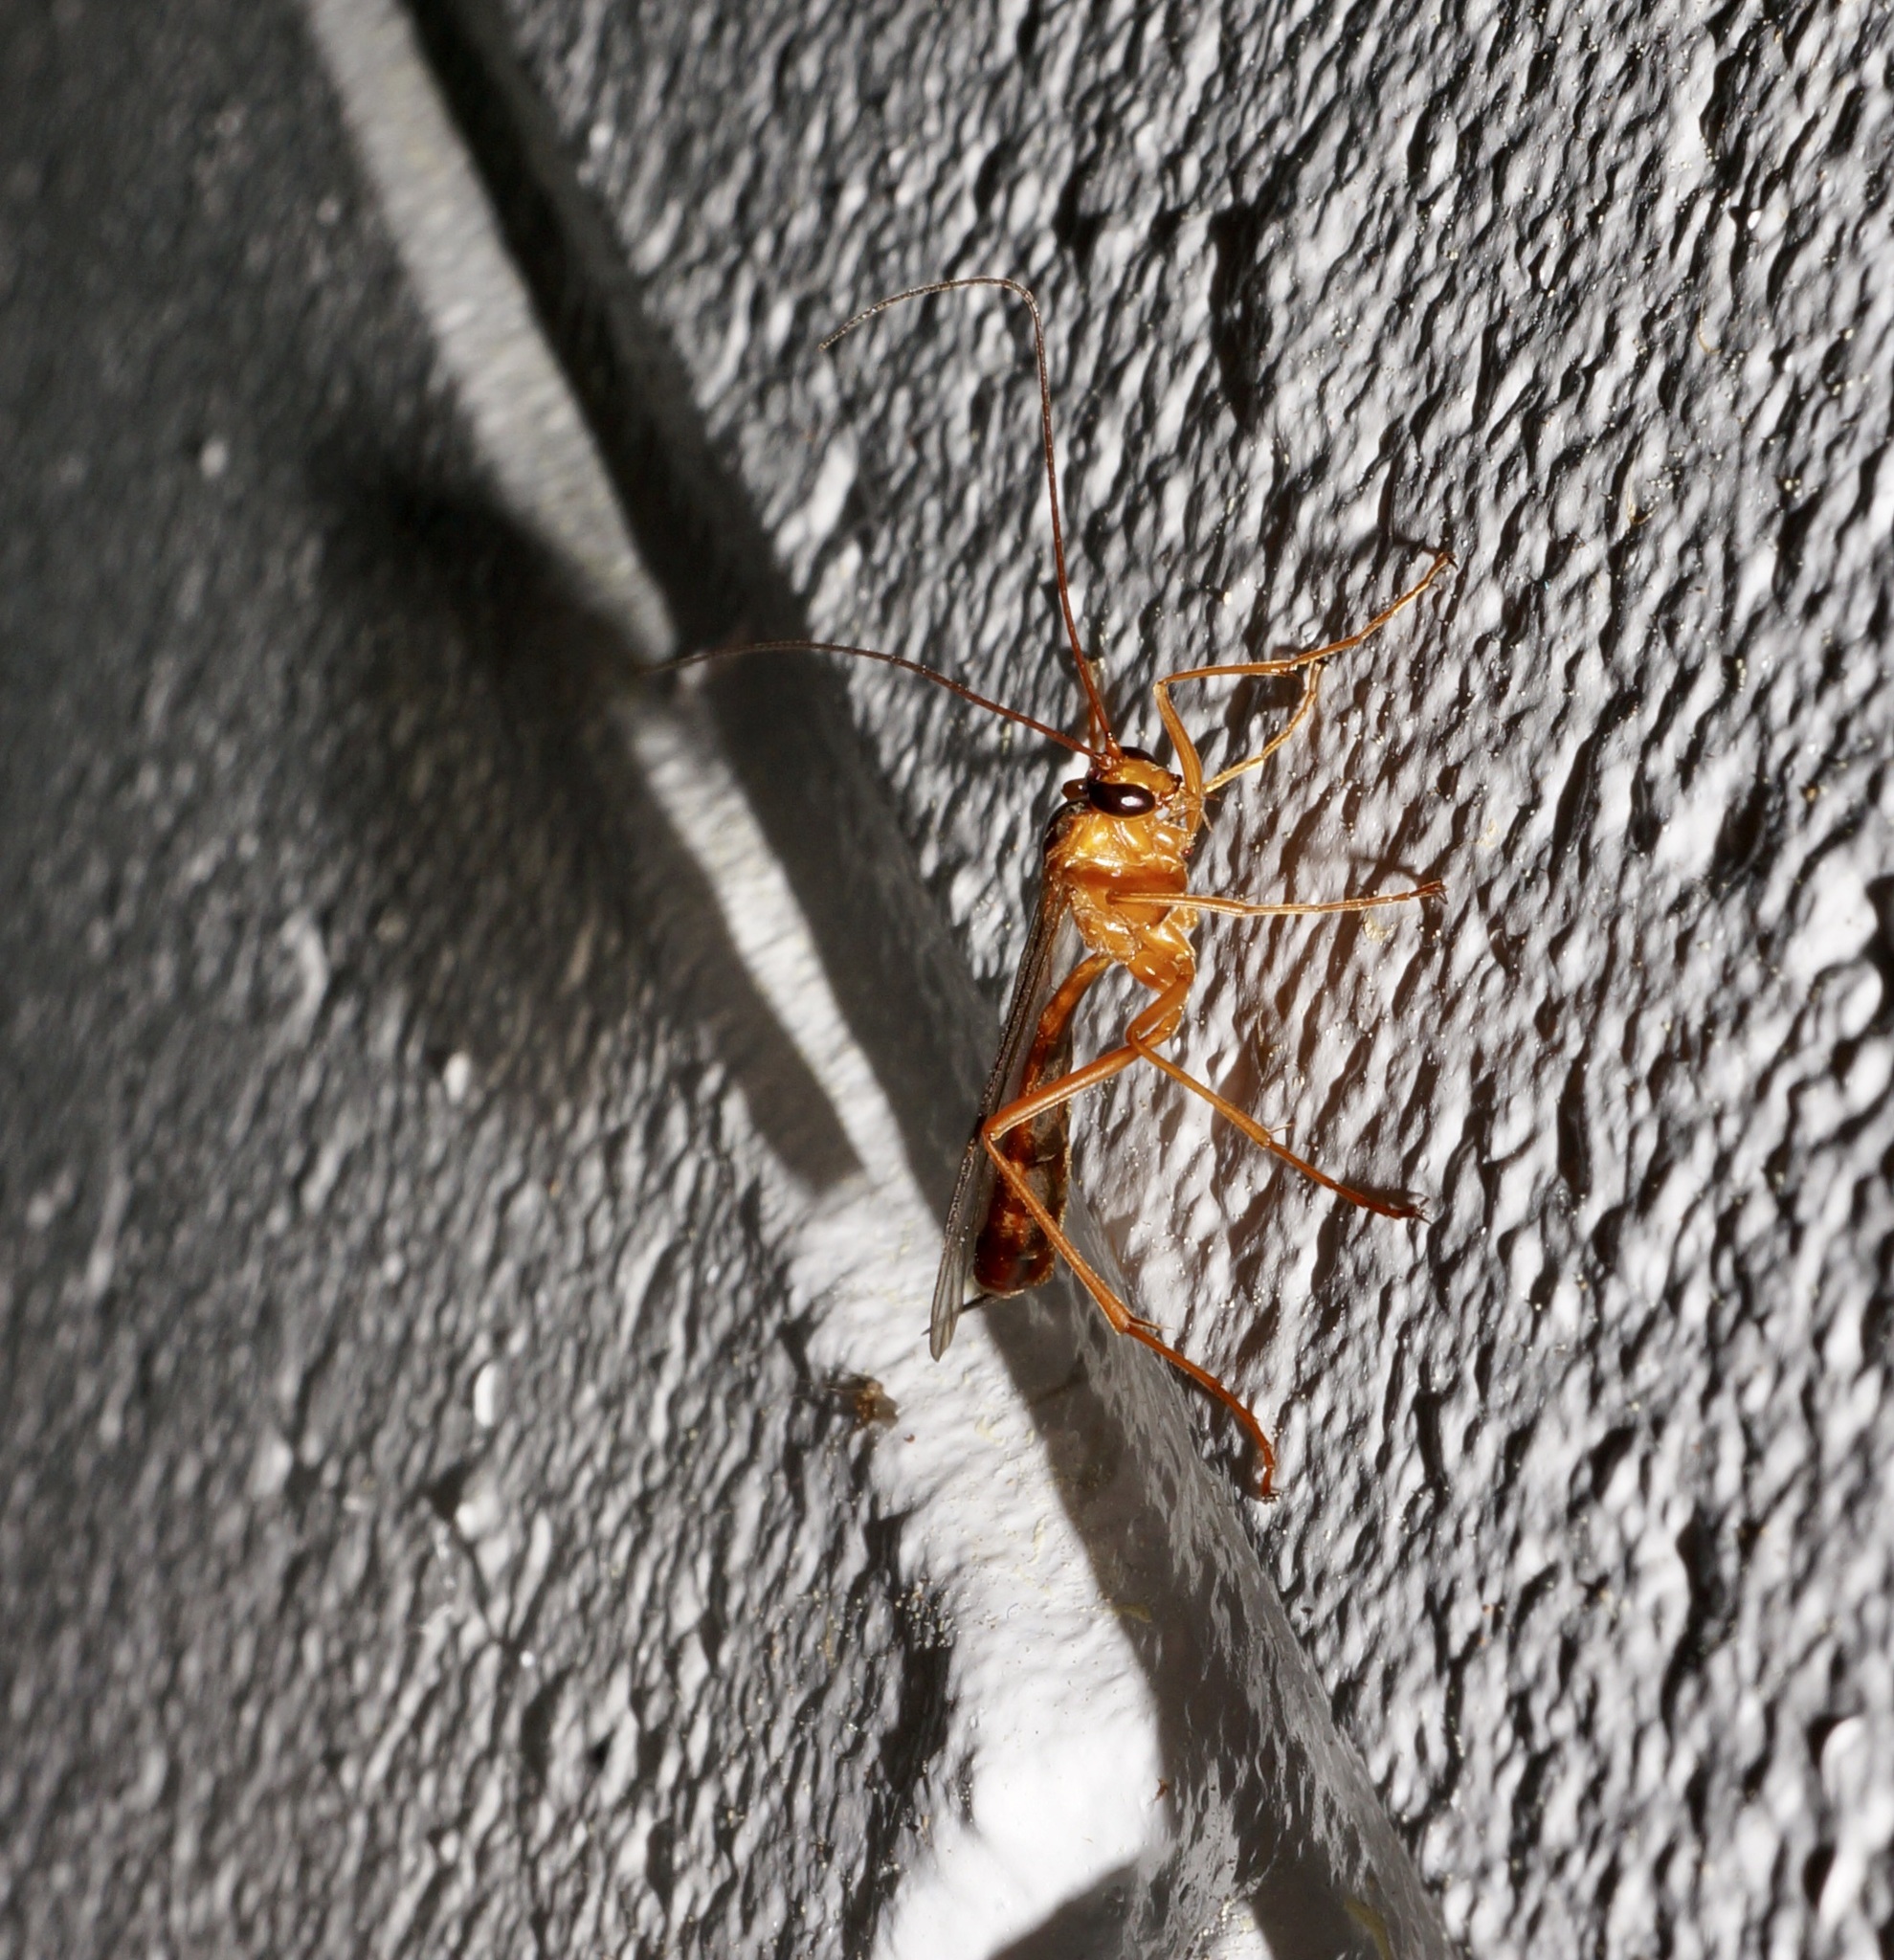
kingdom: Animalia
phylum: Arthropoda
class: Insecta
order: Hymenoptera
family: Ichneumonidae
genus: Netelia
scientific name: Netelia ephippiata
